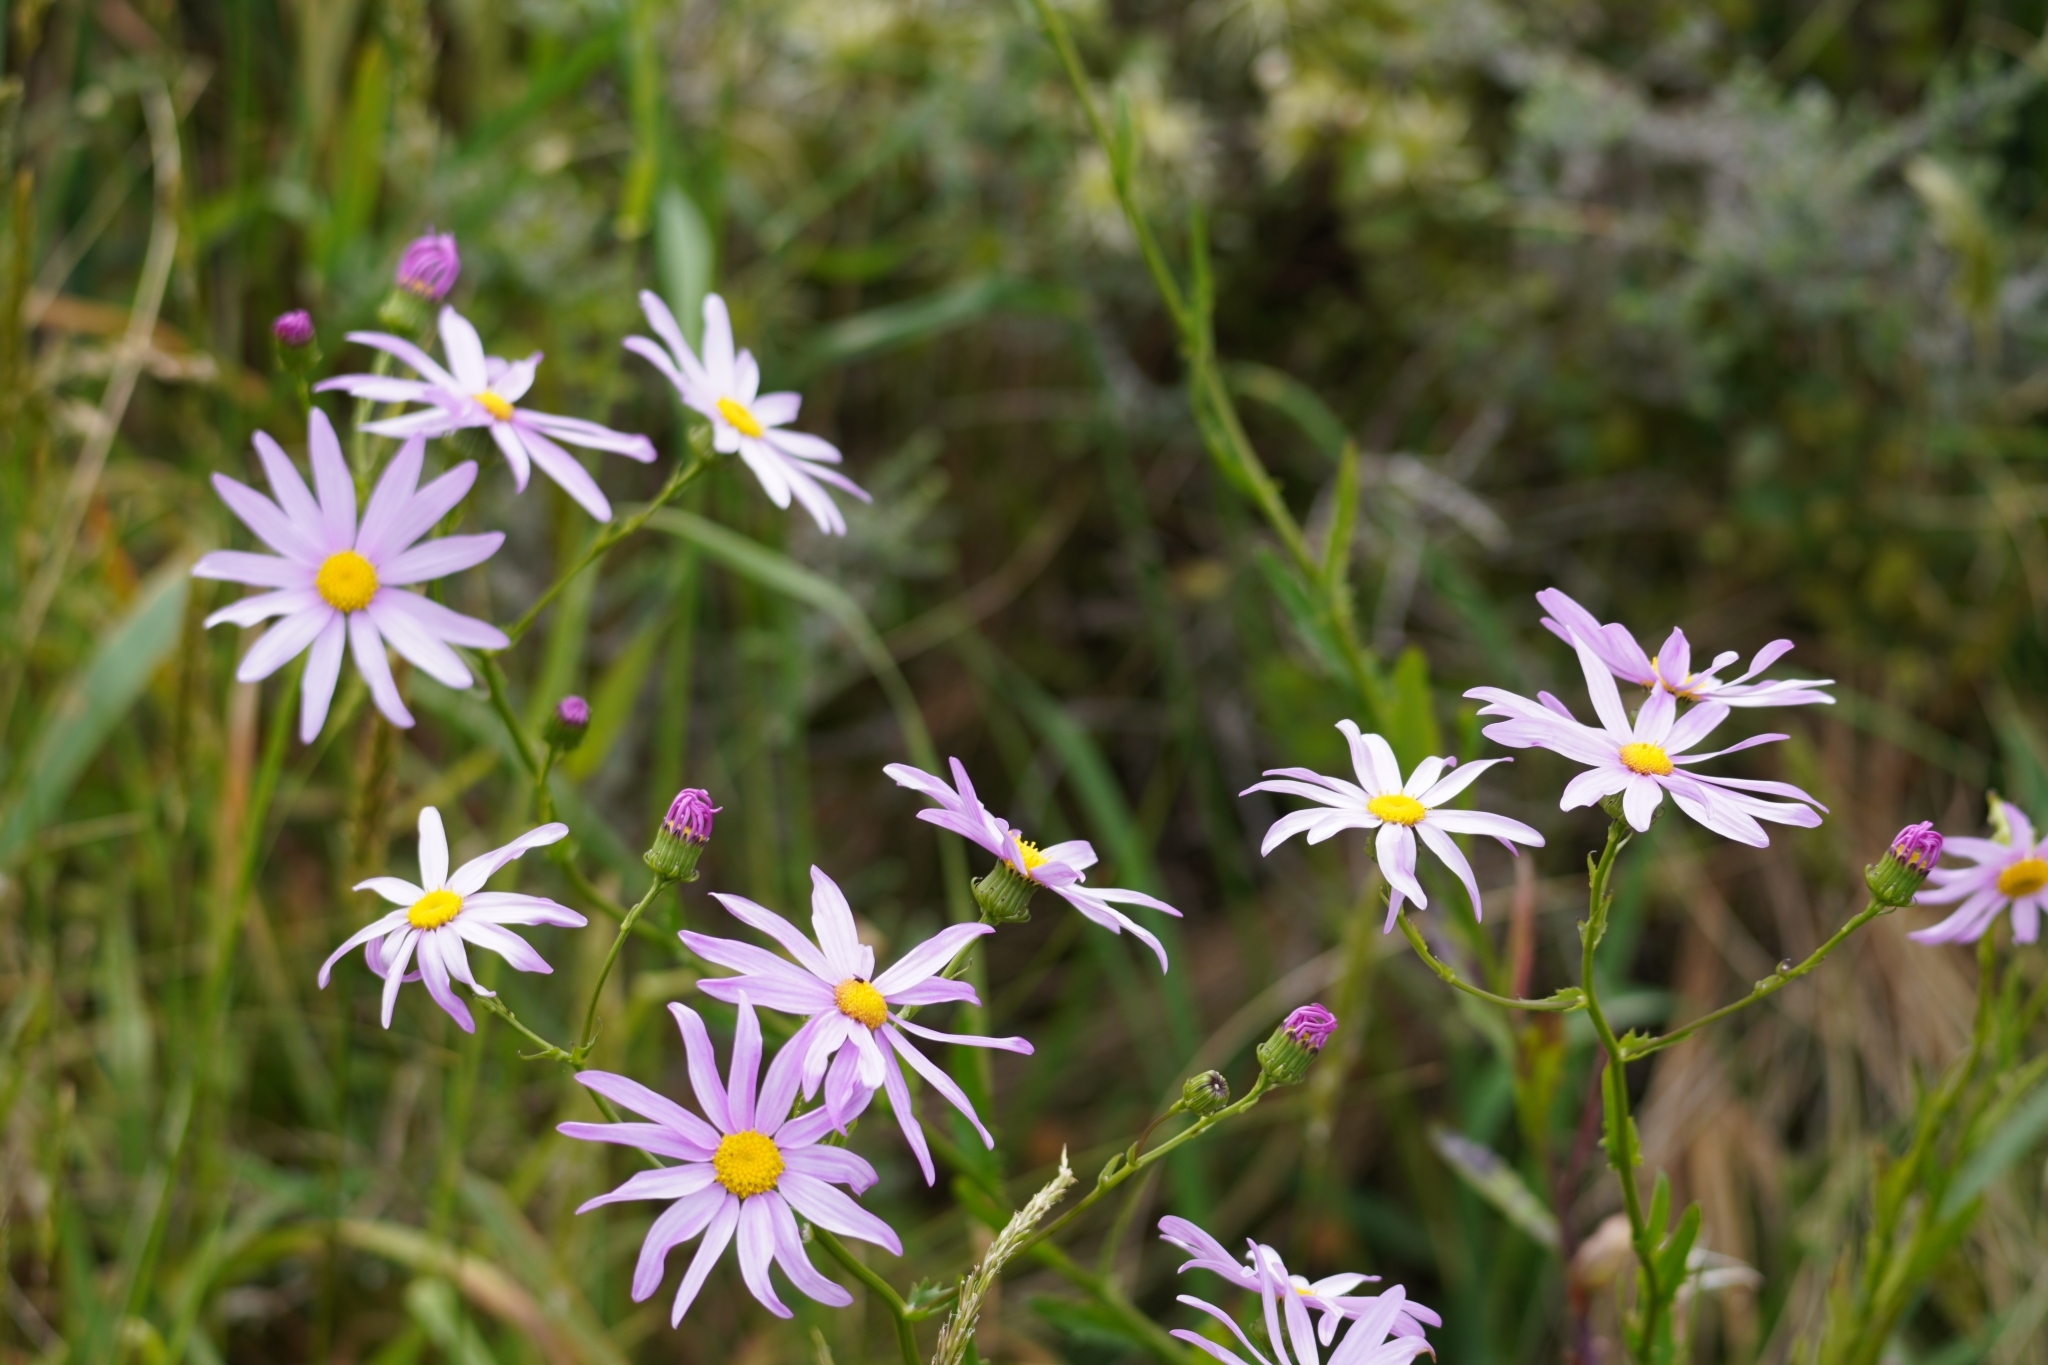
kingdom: Plantae
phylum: Tracheophyta
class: Magnoliopsida
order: Asterales
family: Asteraceae
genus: Senecio
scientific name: Senecio glastifolius
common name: Woad-leaved ragwort
